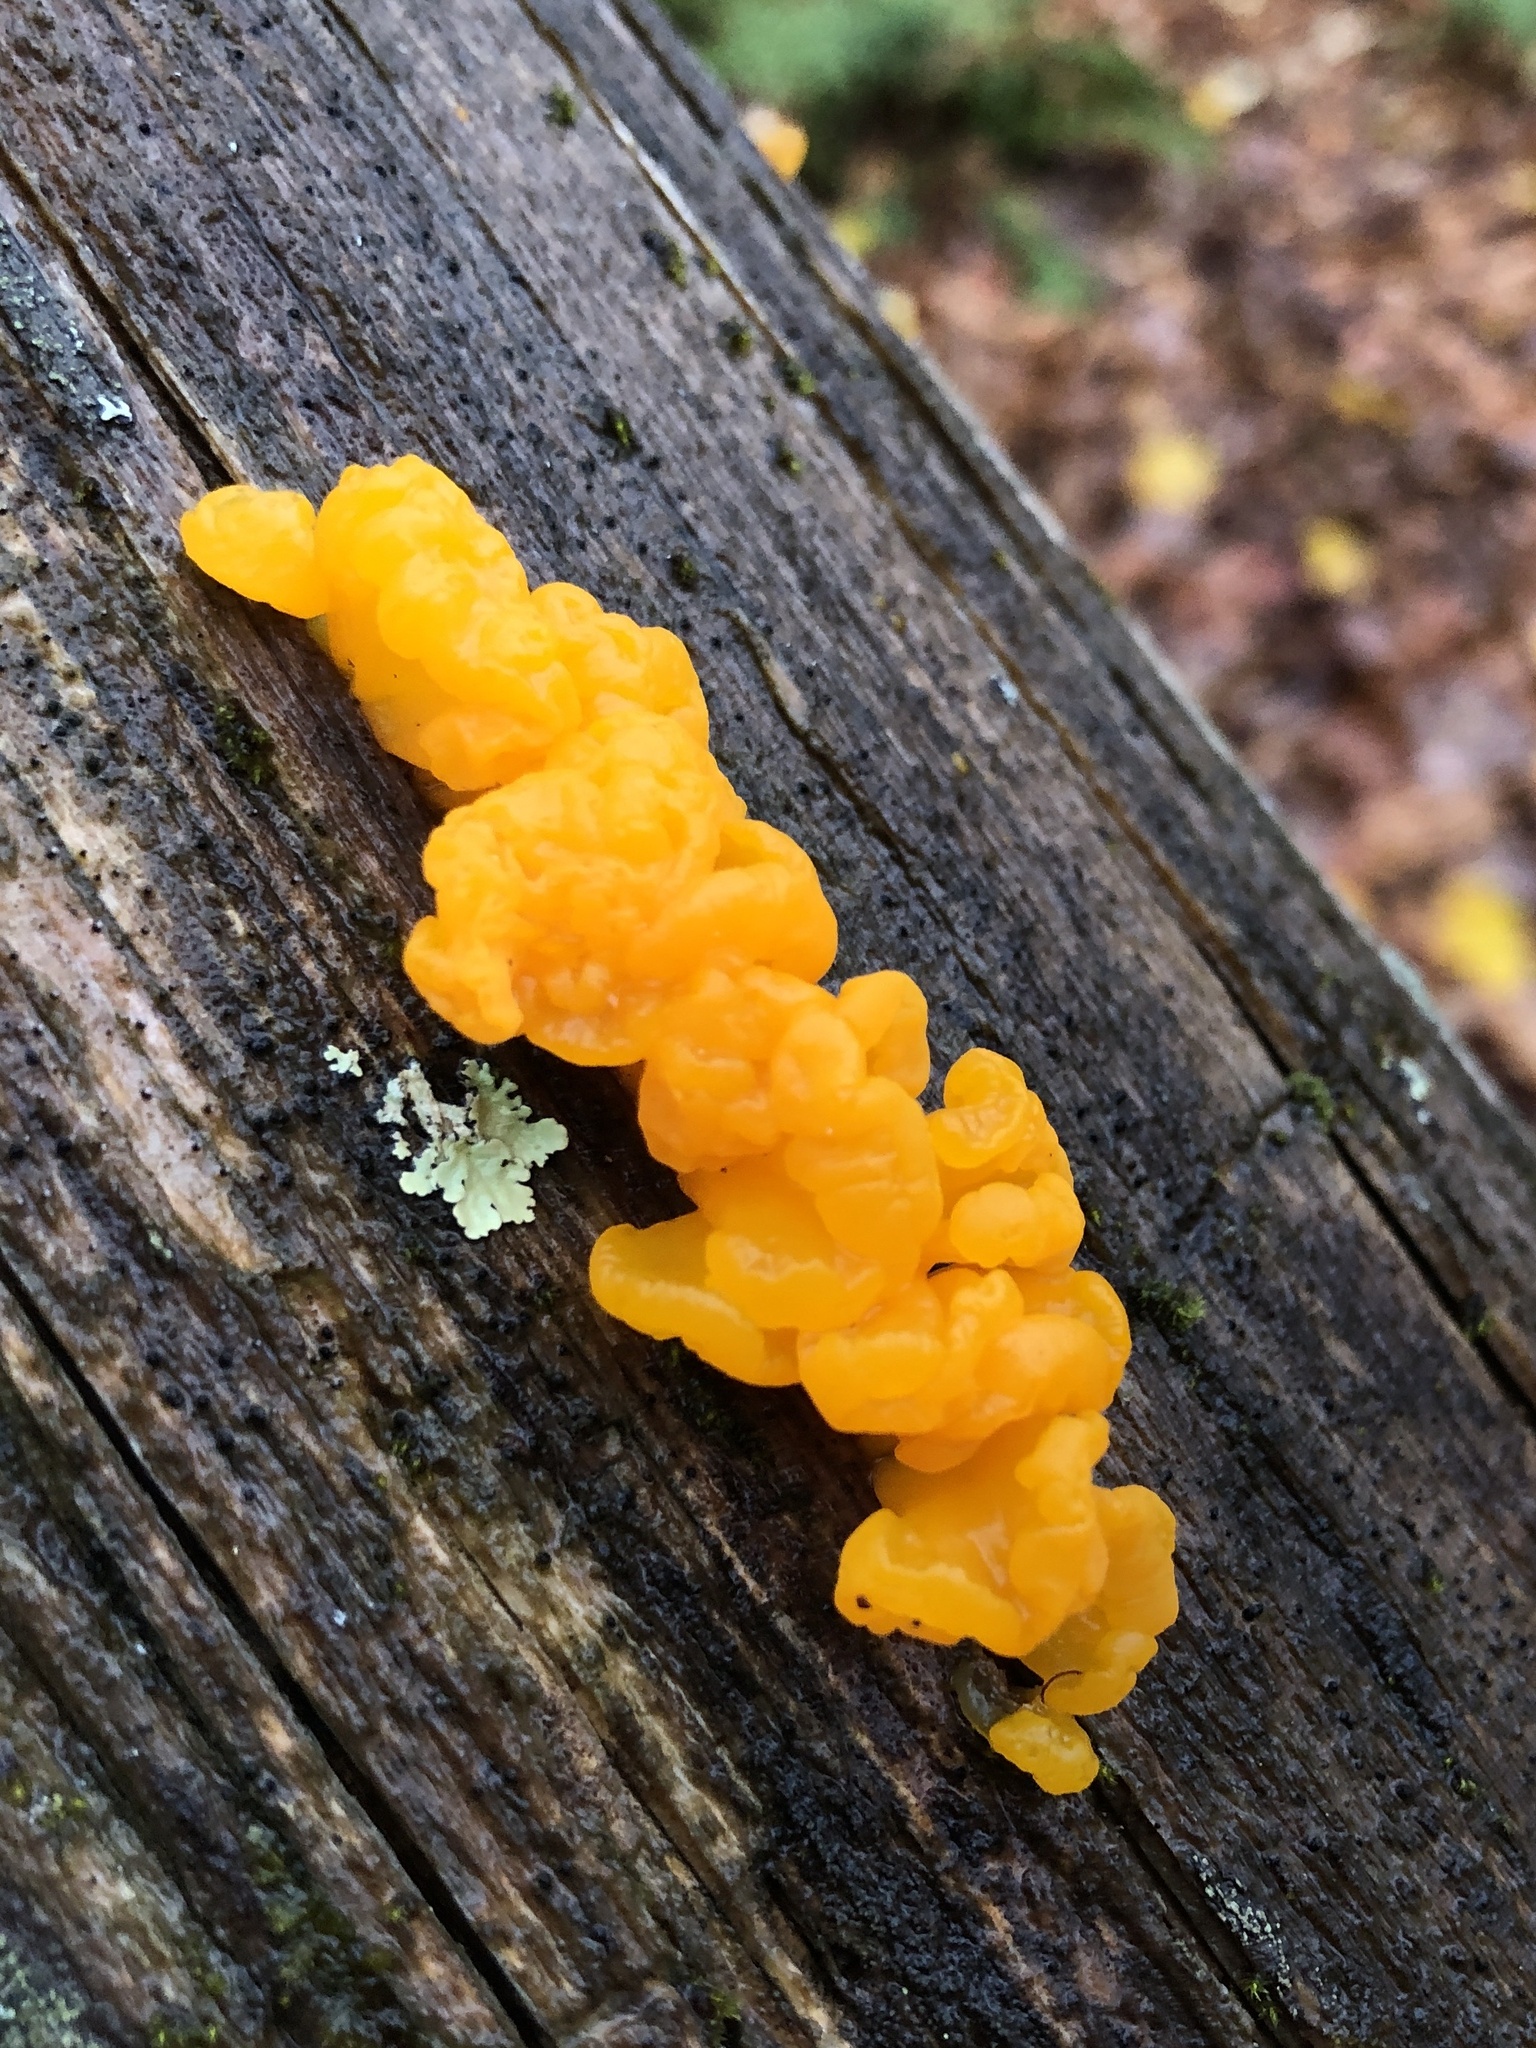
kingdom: Fungi
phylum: Basidiomycota
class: Dacrymycetes
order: Dacrymycetales
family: Dacrymycetaceae
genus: Dacrymyces
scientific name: Dacrymyces chrysospermus
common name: Orange jelly spot
